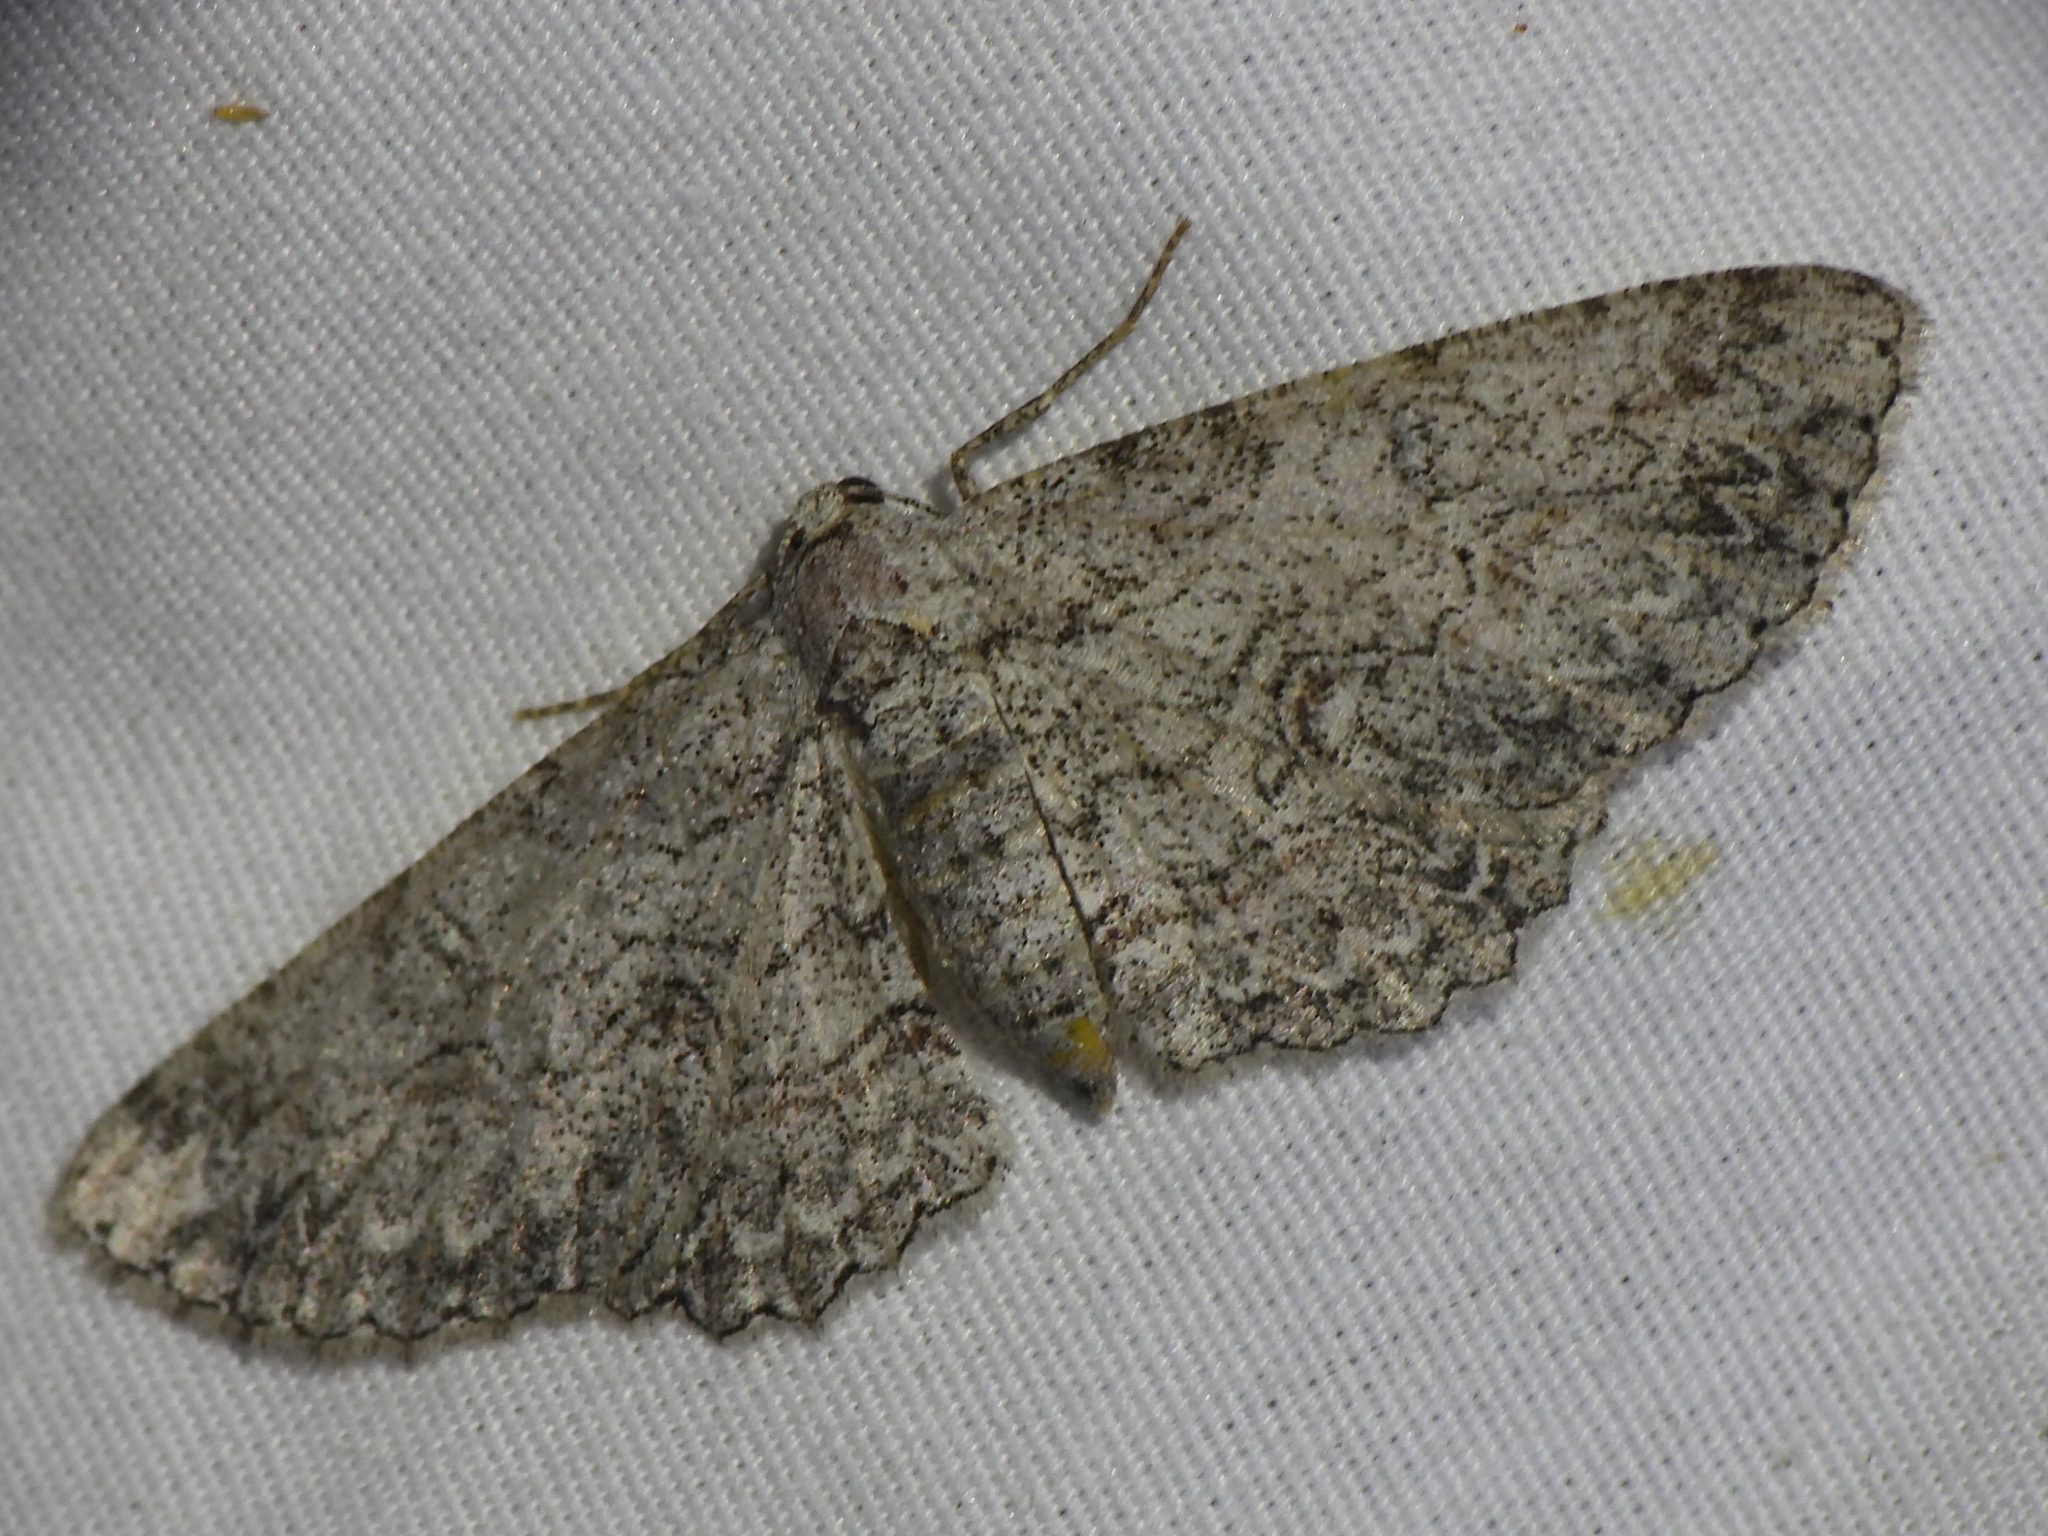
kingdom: Animalia
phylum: Arthropoda
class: Insecta
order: Lepidoptera
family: Geometridae
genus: Iridopsis
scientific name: Iridopsis defectaria
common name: Brown-shaded gray
